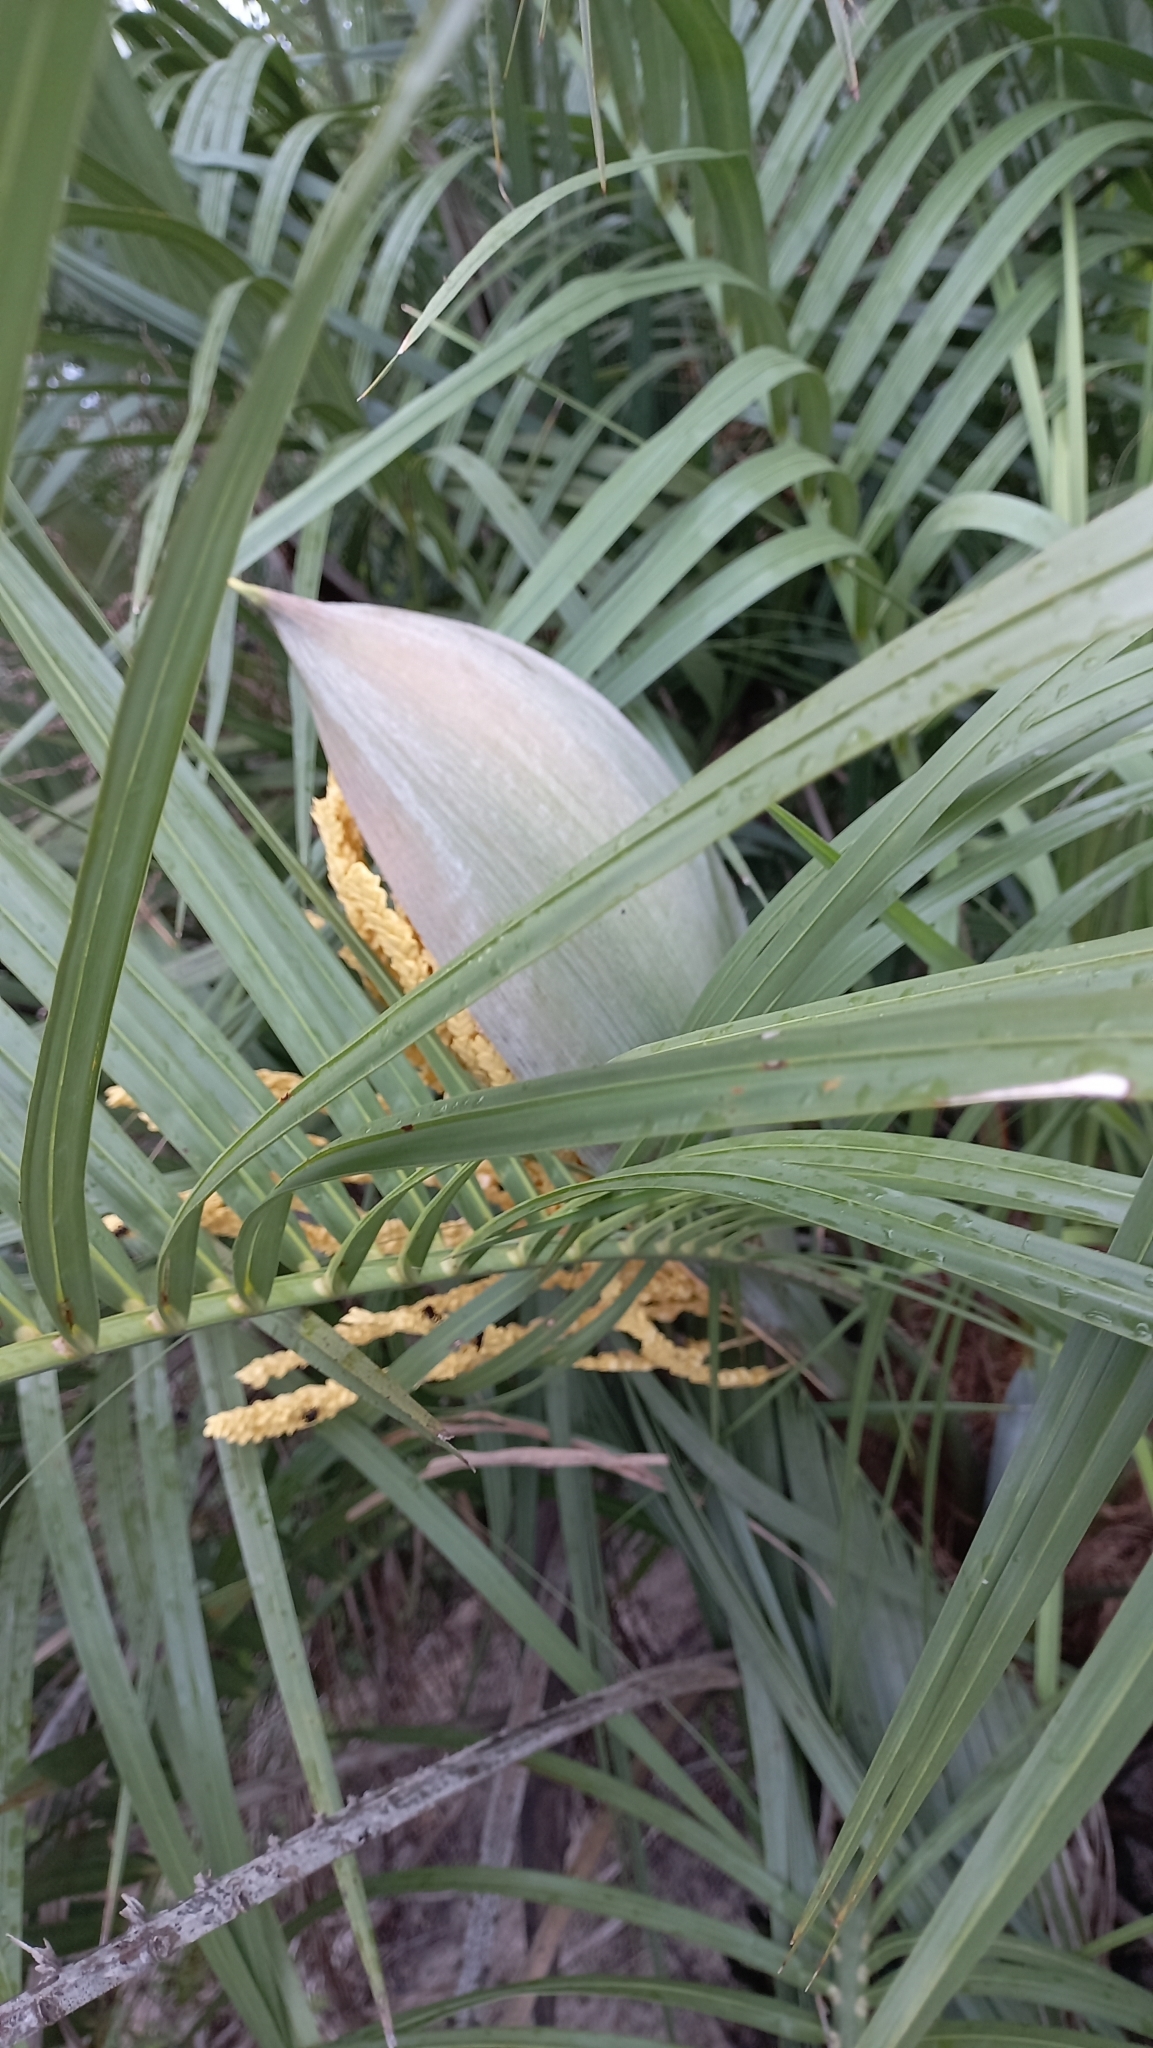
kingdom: Plantae
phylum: Tracheophyta
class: Liliopsida
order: Arecales
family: Arecaceae
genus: Butia
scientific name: Butia catarinensis
